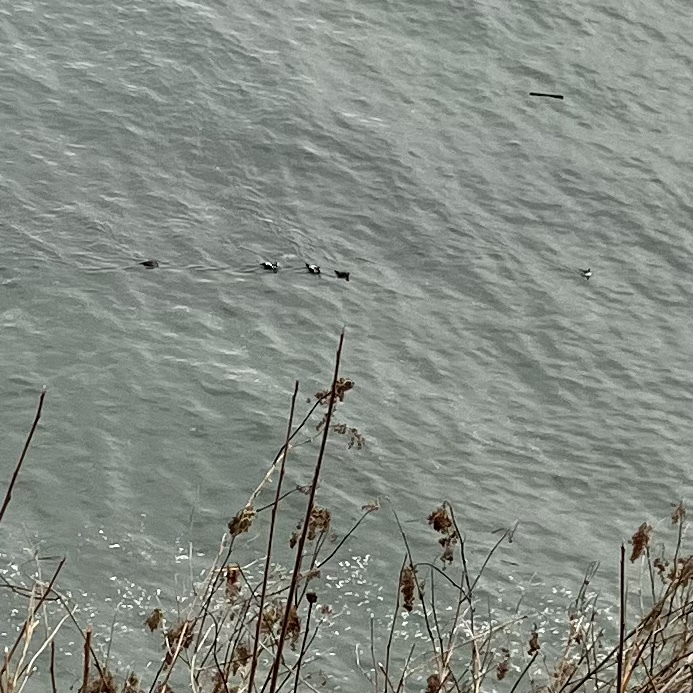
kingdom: Animalia
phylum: Chordata
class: Aves
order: Anseriformes
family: Anatidae
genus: Histrionicus
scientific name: Histrionicus histrionicus
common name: Harlequin duck
